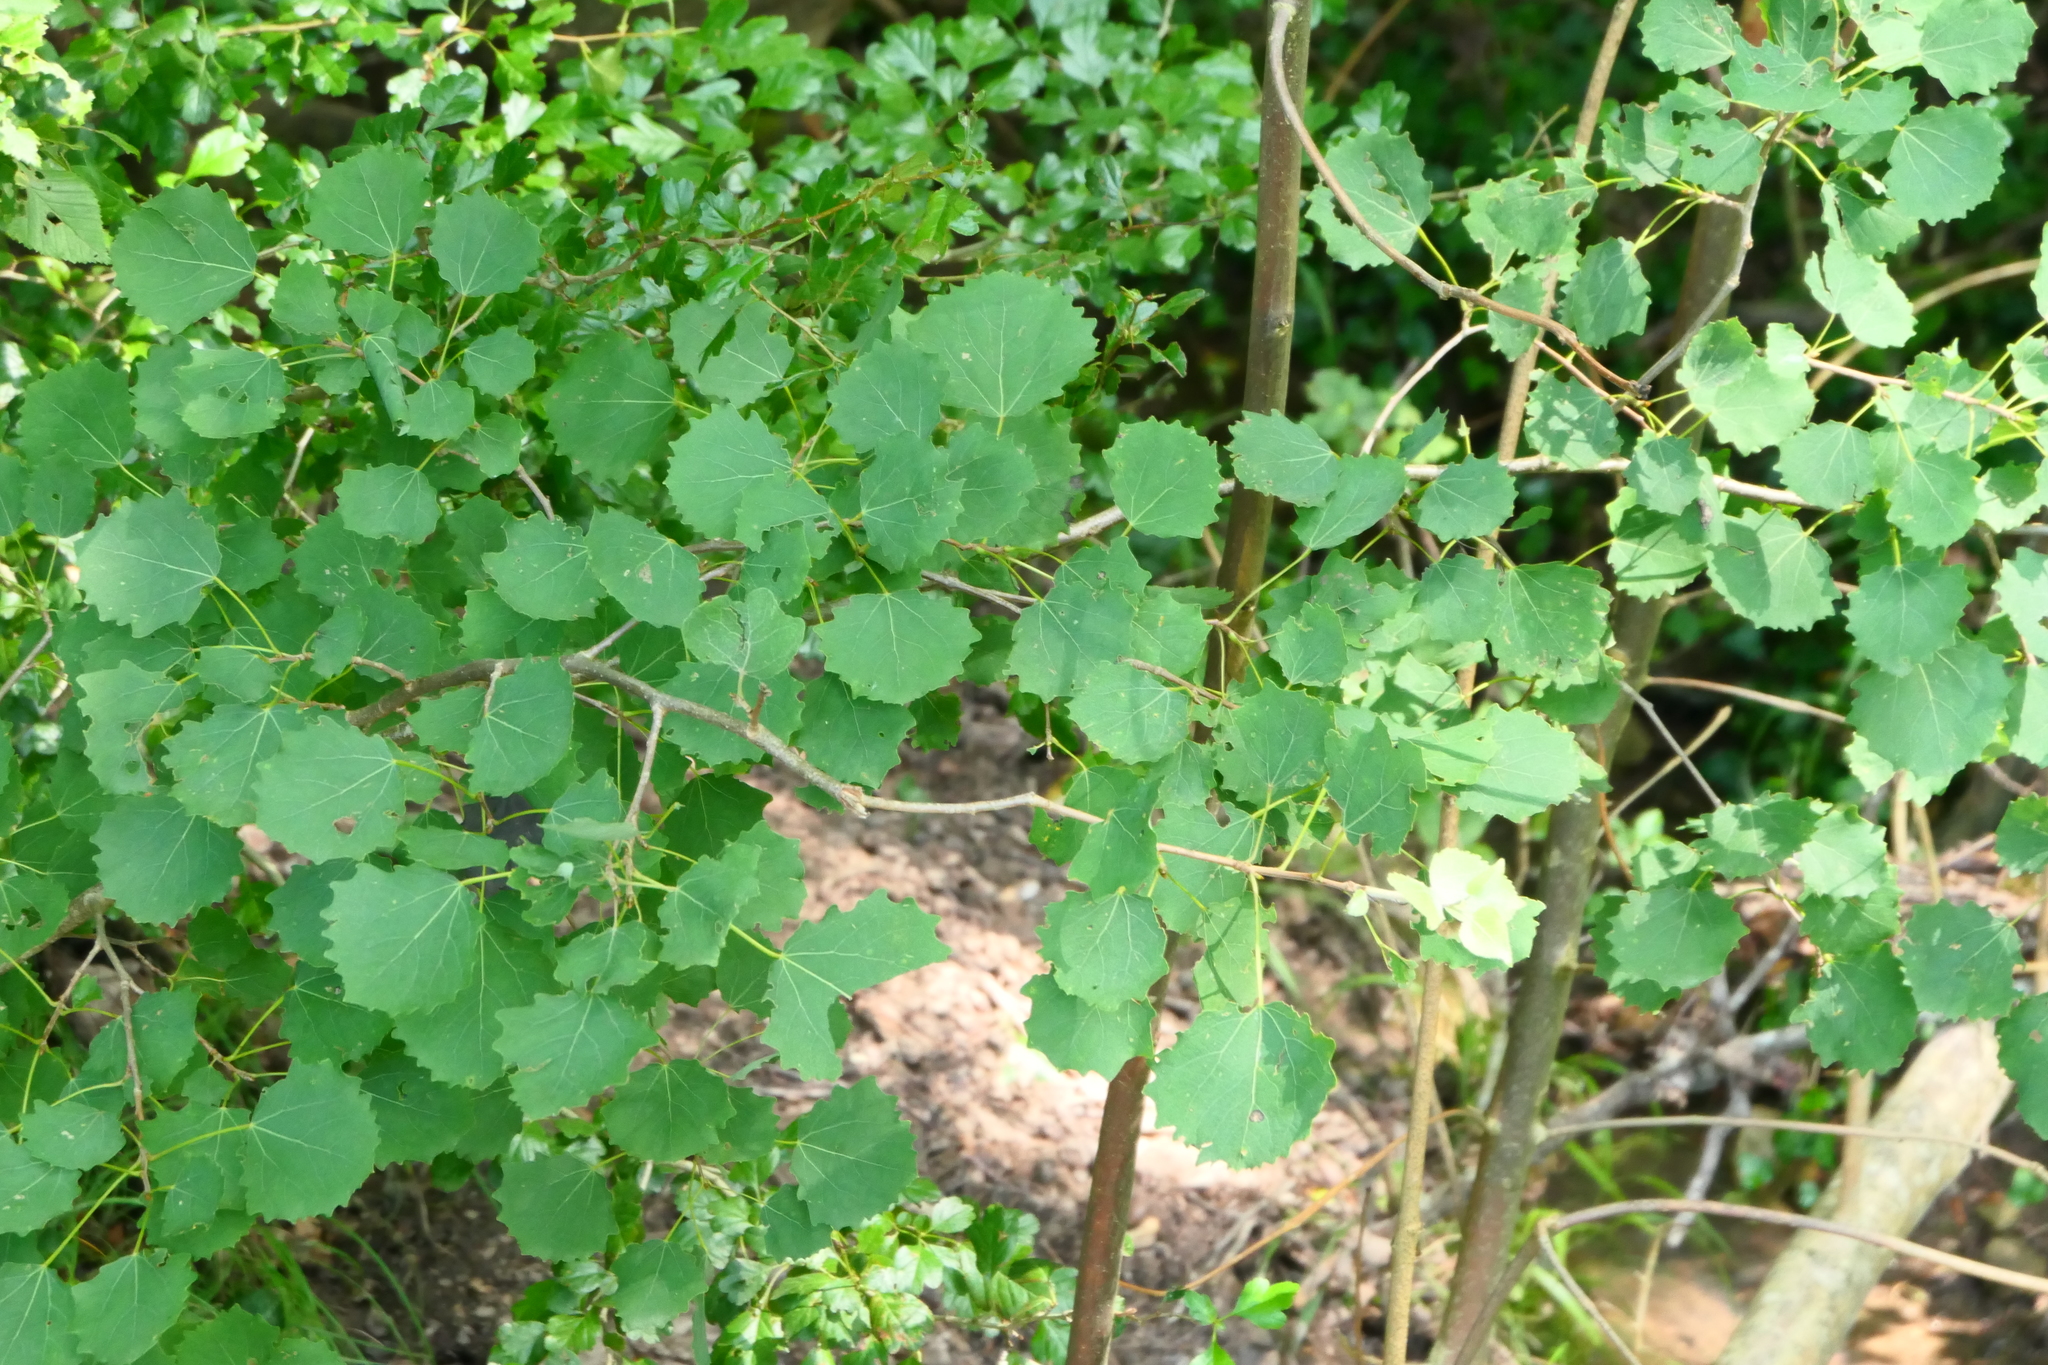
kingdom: Plantae
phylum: Tracheophyta
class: Magnoliopsida
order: Malpighiales
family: Salicaceae
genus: Populus
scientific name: Populus tremula
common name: European aspen
